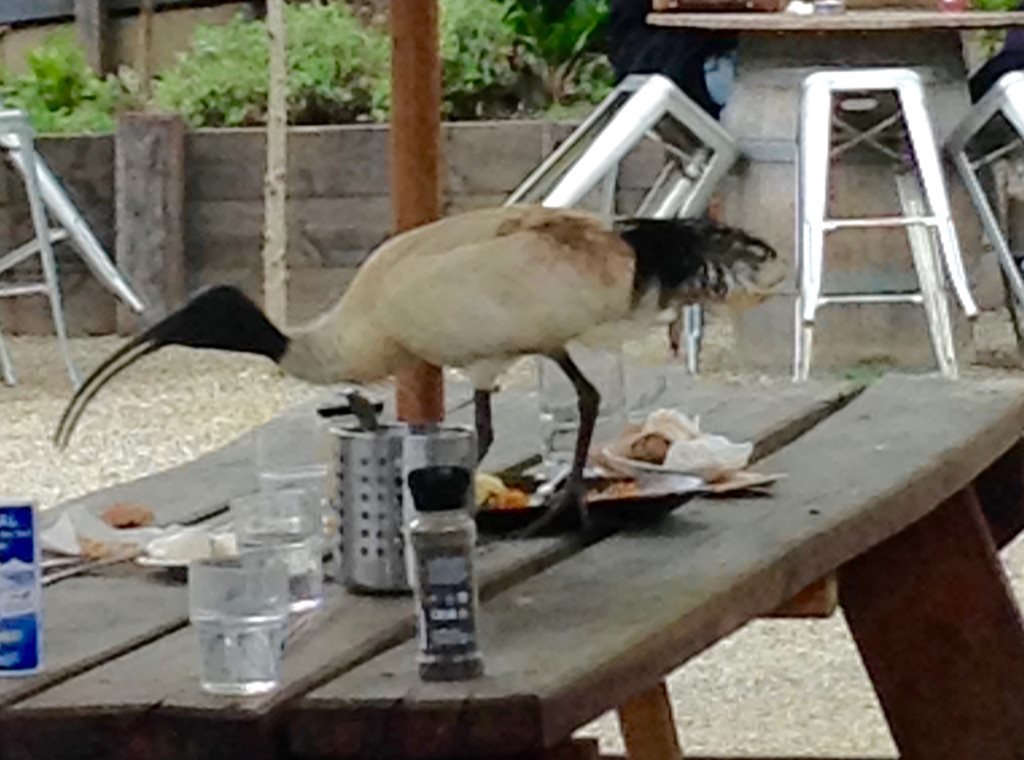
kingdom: Animalia
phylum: Chordata
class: Aves
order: Pelecaniformes
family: Threskiornithidae
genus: Threskiornis
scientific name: Threskiornis molucca
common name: Australian white ibis
